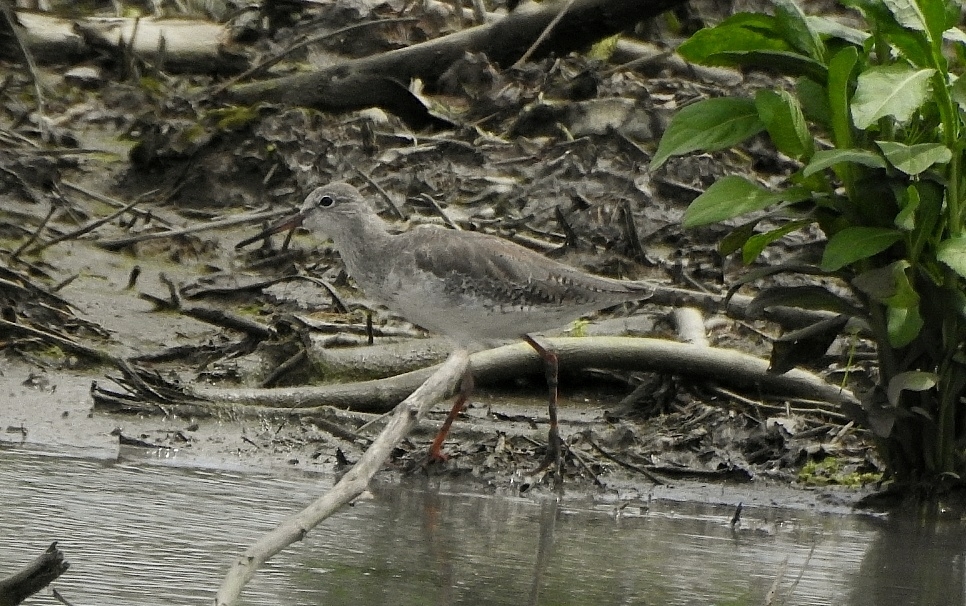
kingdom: Animalia
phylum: Chordata
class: Aves
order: Charadriiformes
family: Scolopacidae
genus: Tringa
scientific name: Tringa totanus
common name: Common redshank
